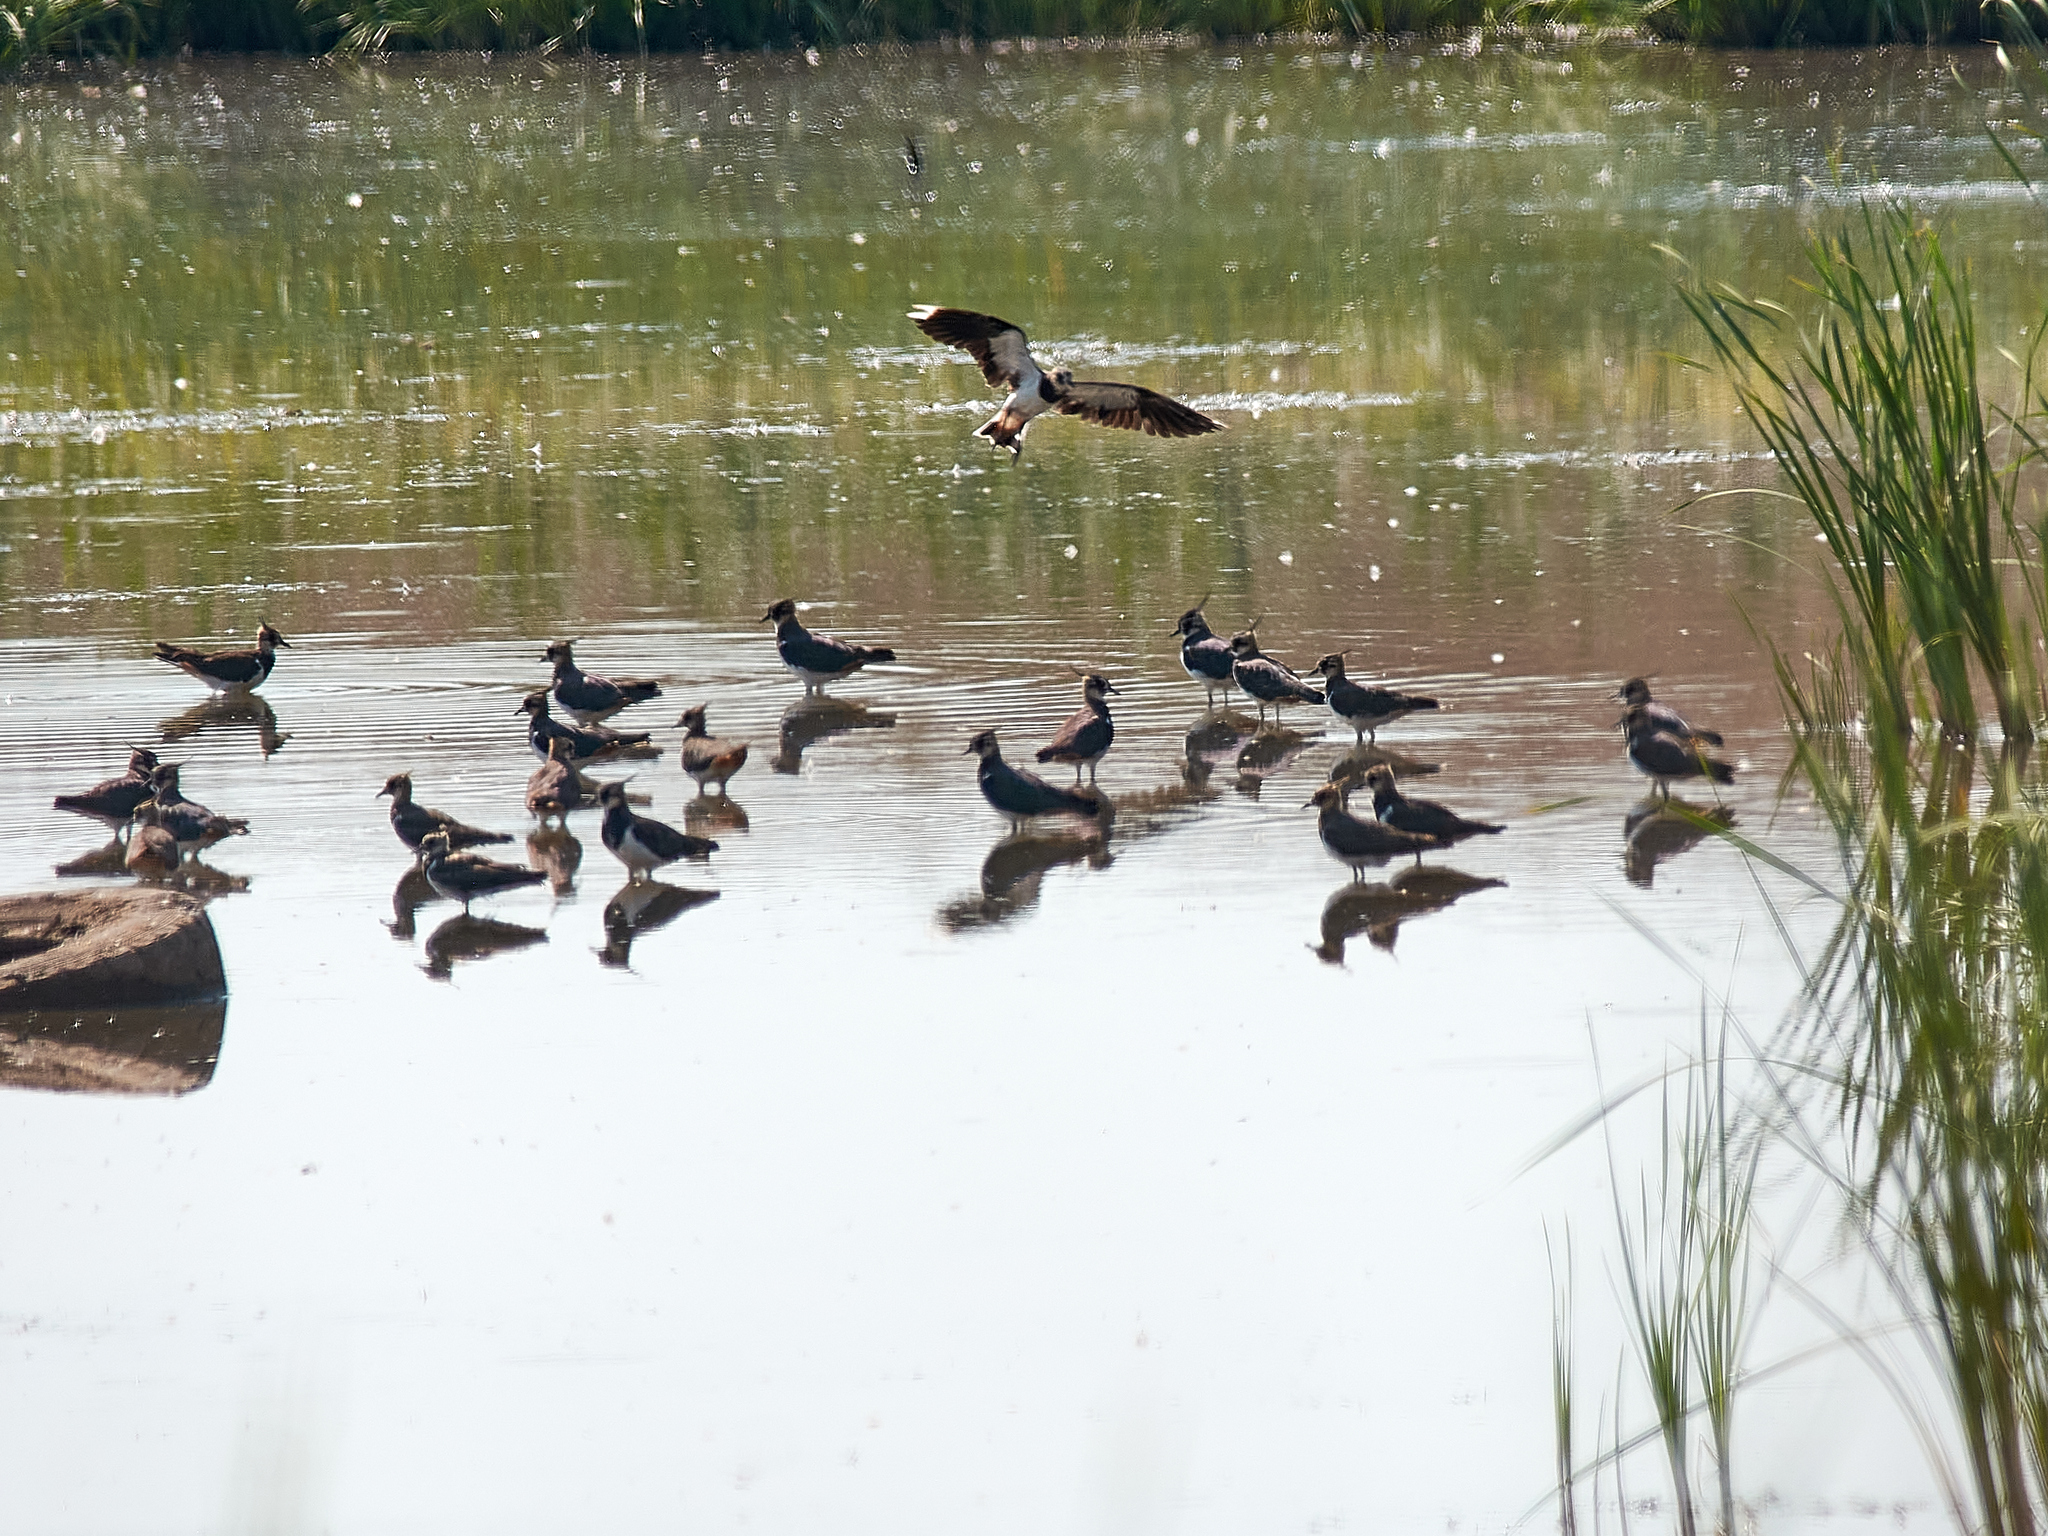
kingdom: Animalia
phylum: Chordata
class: Aves
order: Charadriiformes
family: Charadriidae
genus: Vanellus
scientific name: Vanellus vanellus
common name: Northern lapwing
